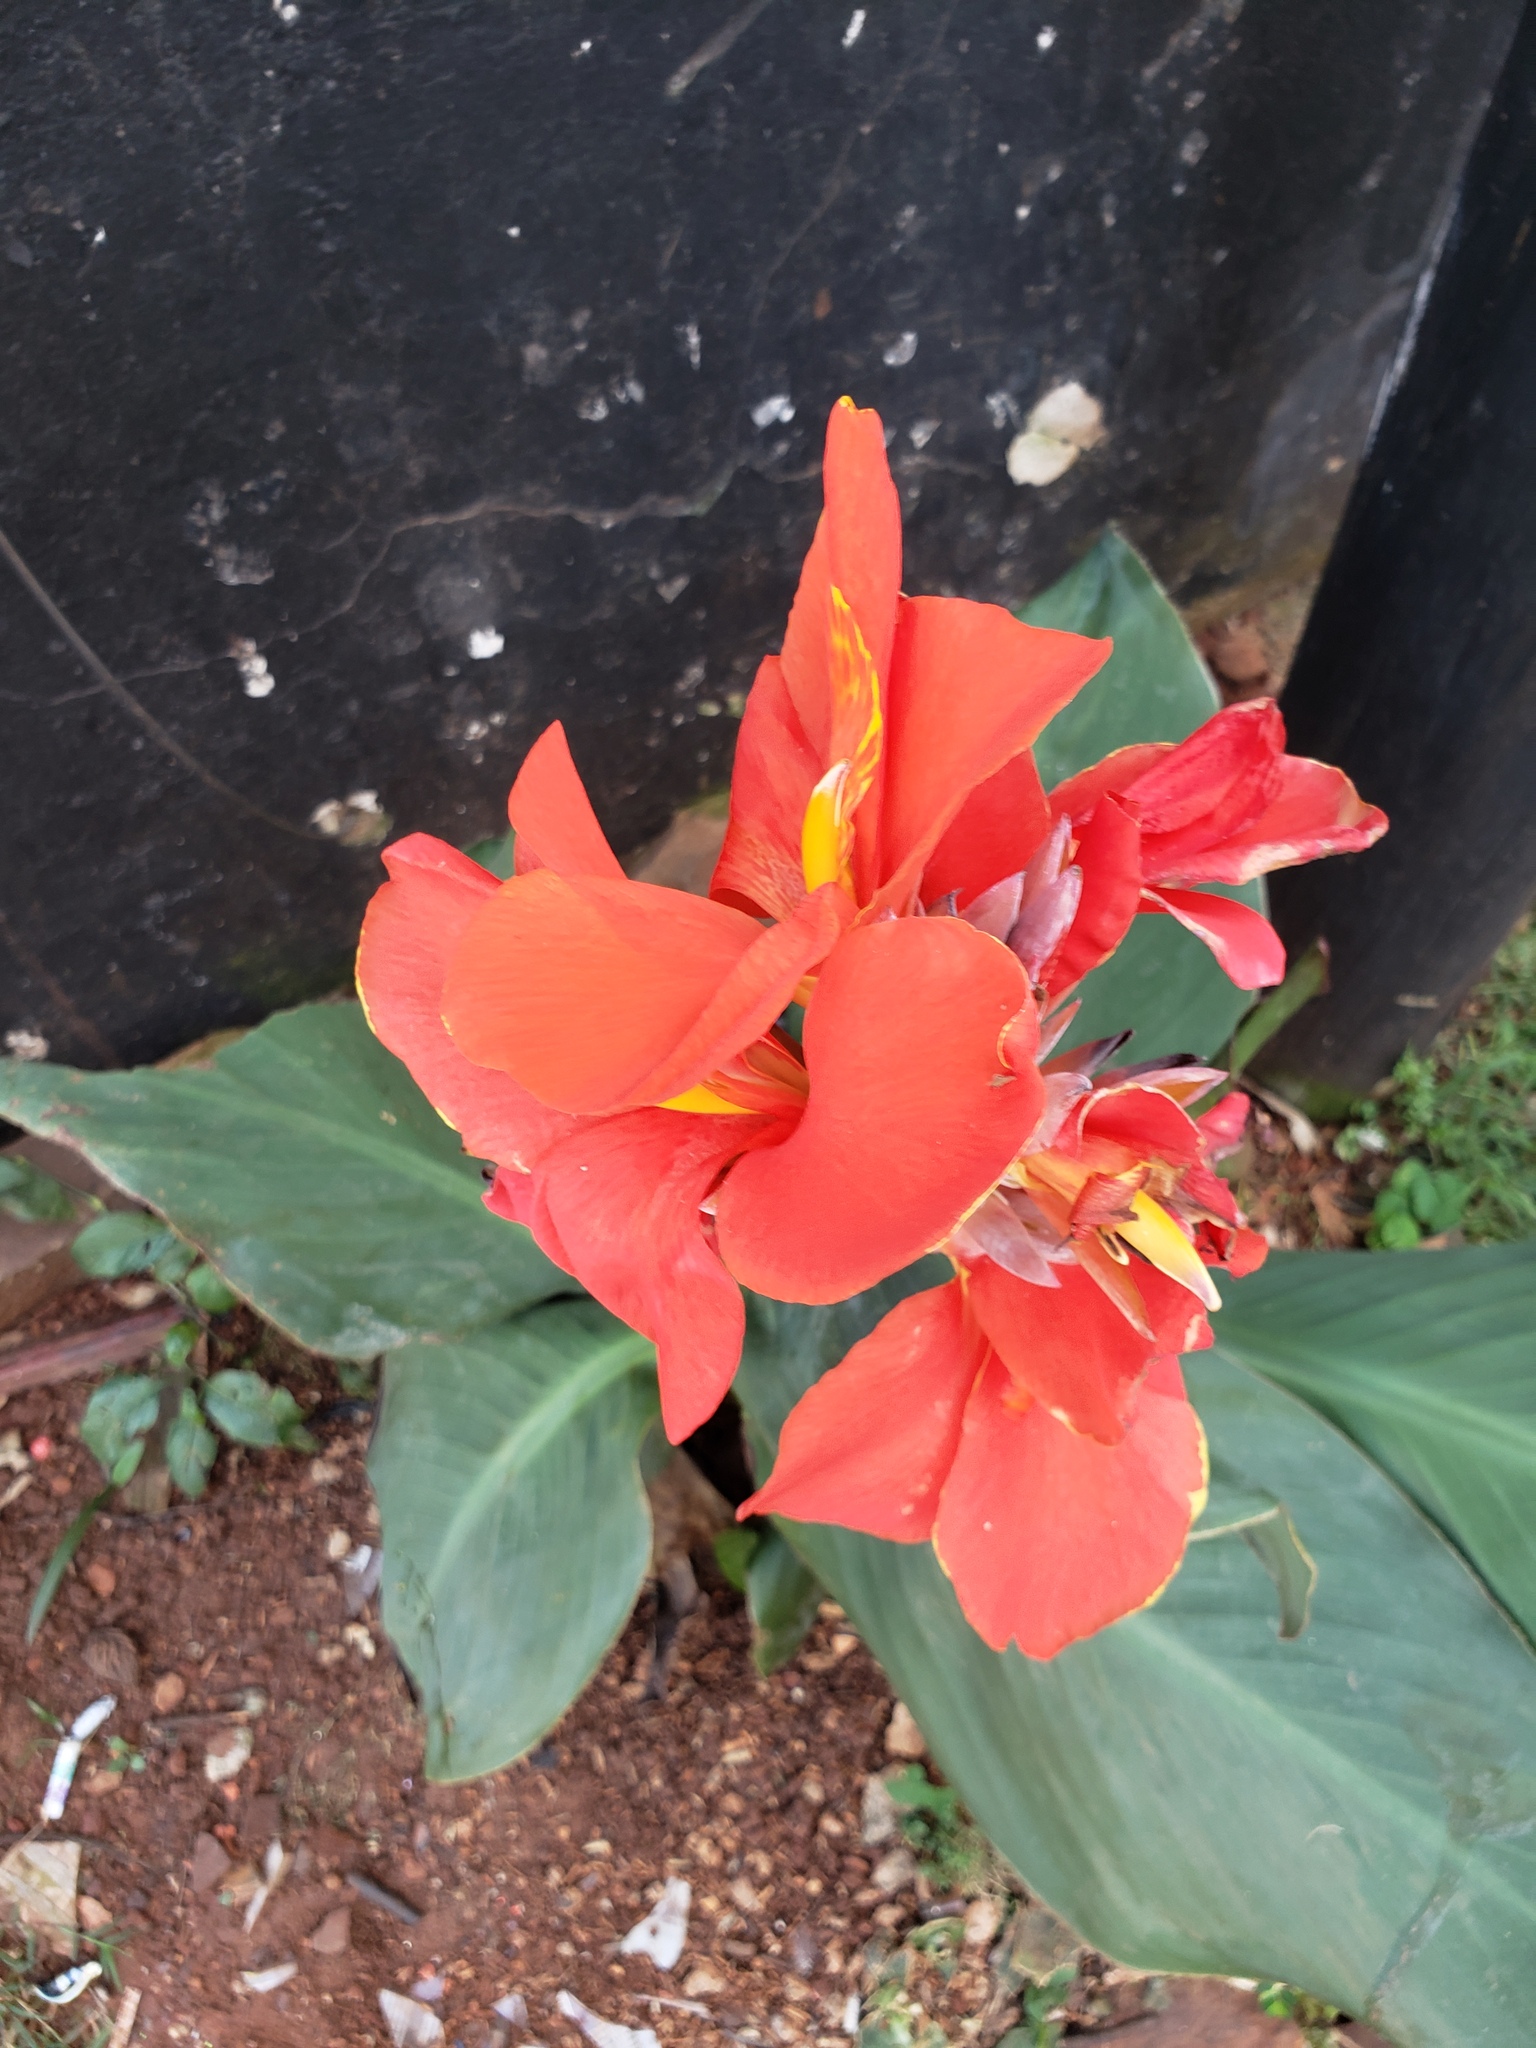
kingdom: Plantae
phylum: Tracheophyta
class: Liliopsida
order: Zingiberales
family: Cannaceae
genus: Canna
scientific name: Canna hybrida
